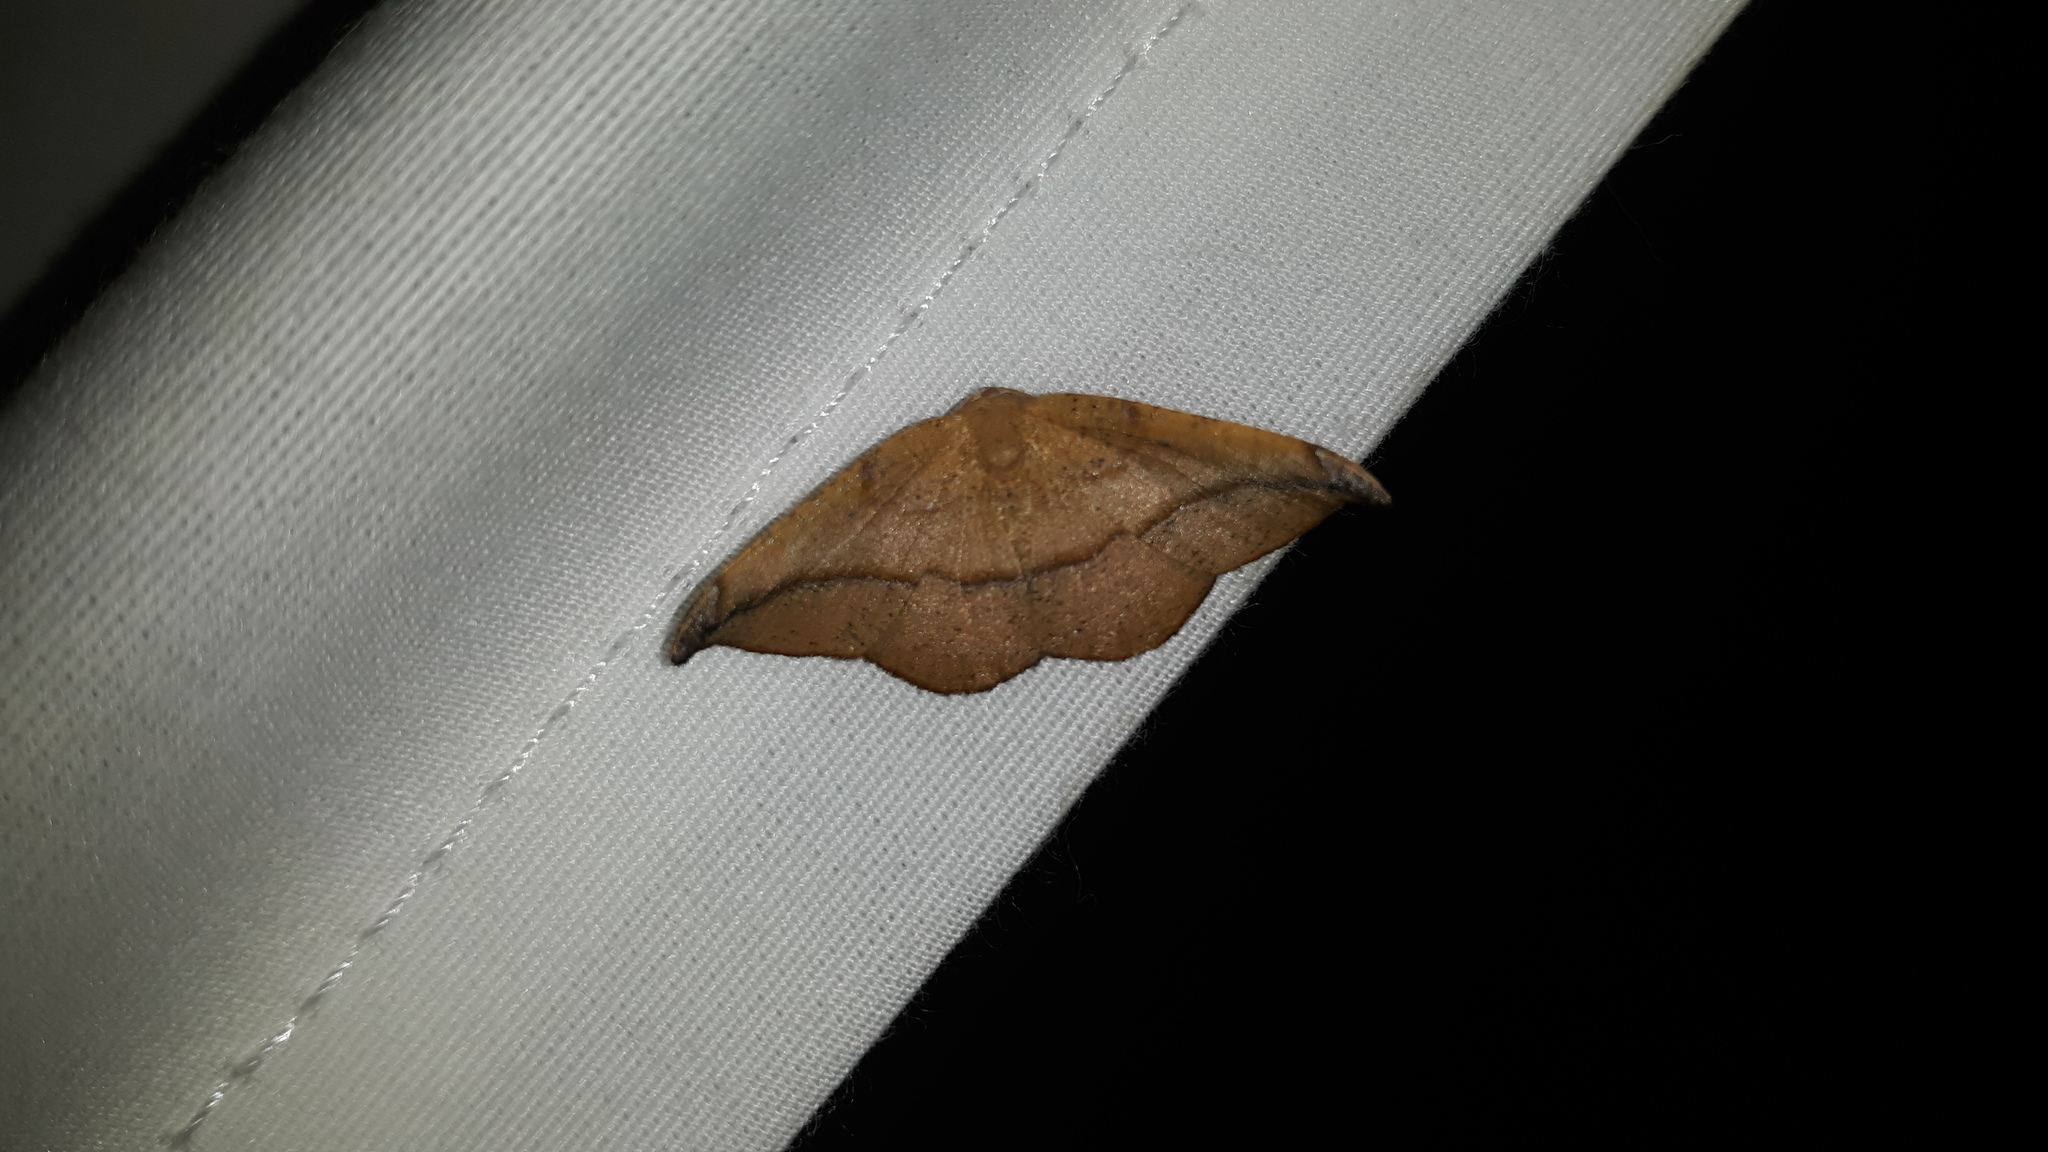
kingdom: Animalia
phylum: Arthropoda
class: Insecta
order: Lepidoptera
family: Geometridae
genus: Patalene
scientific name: Patalene olyzonaria
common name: Juniper geometer moth
